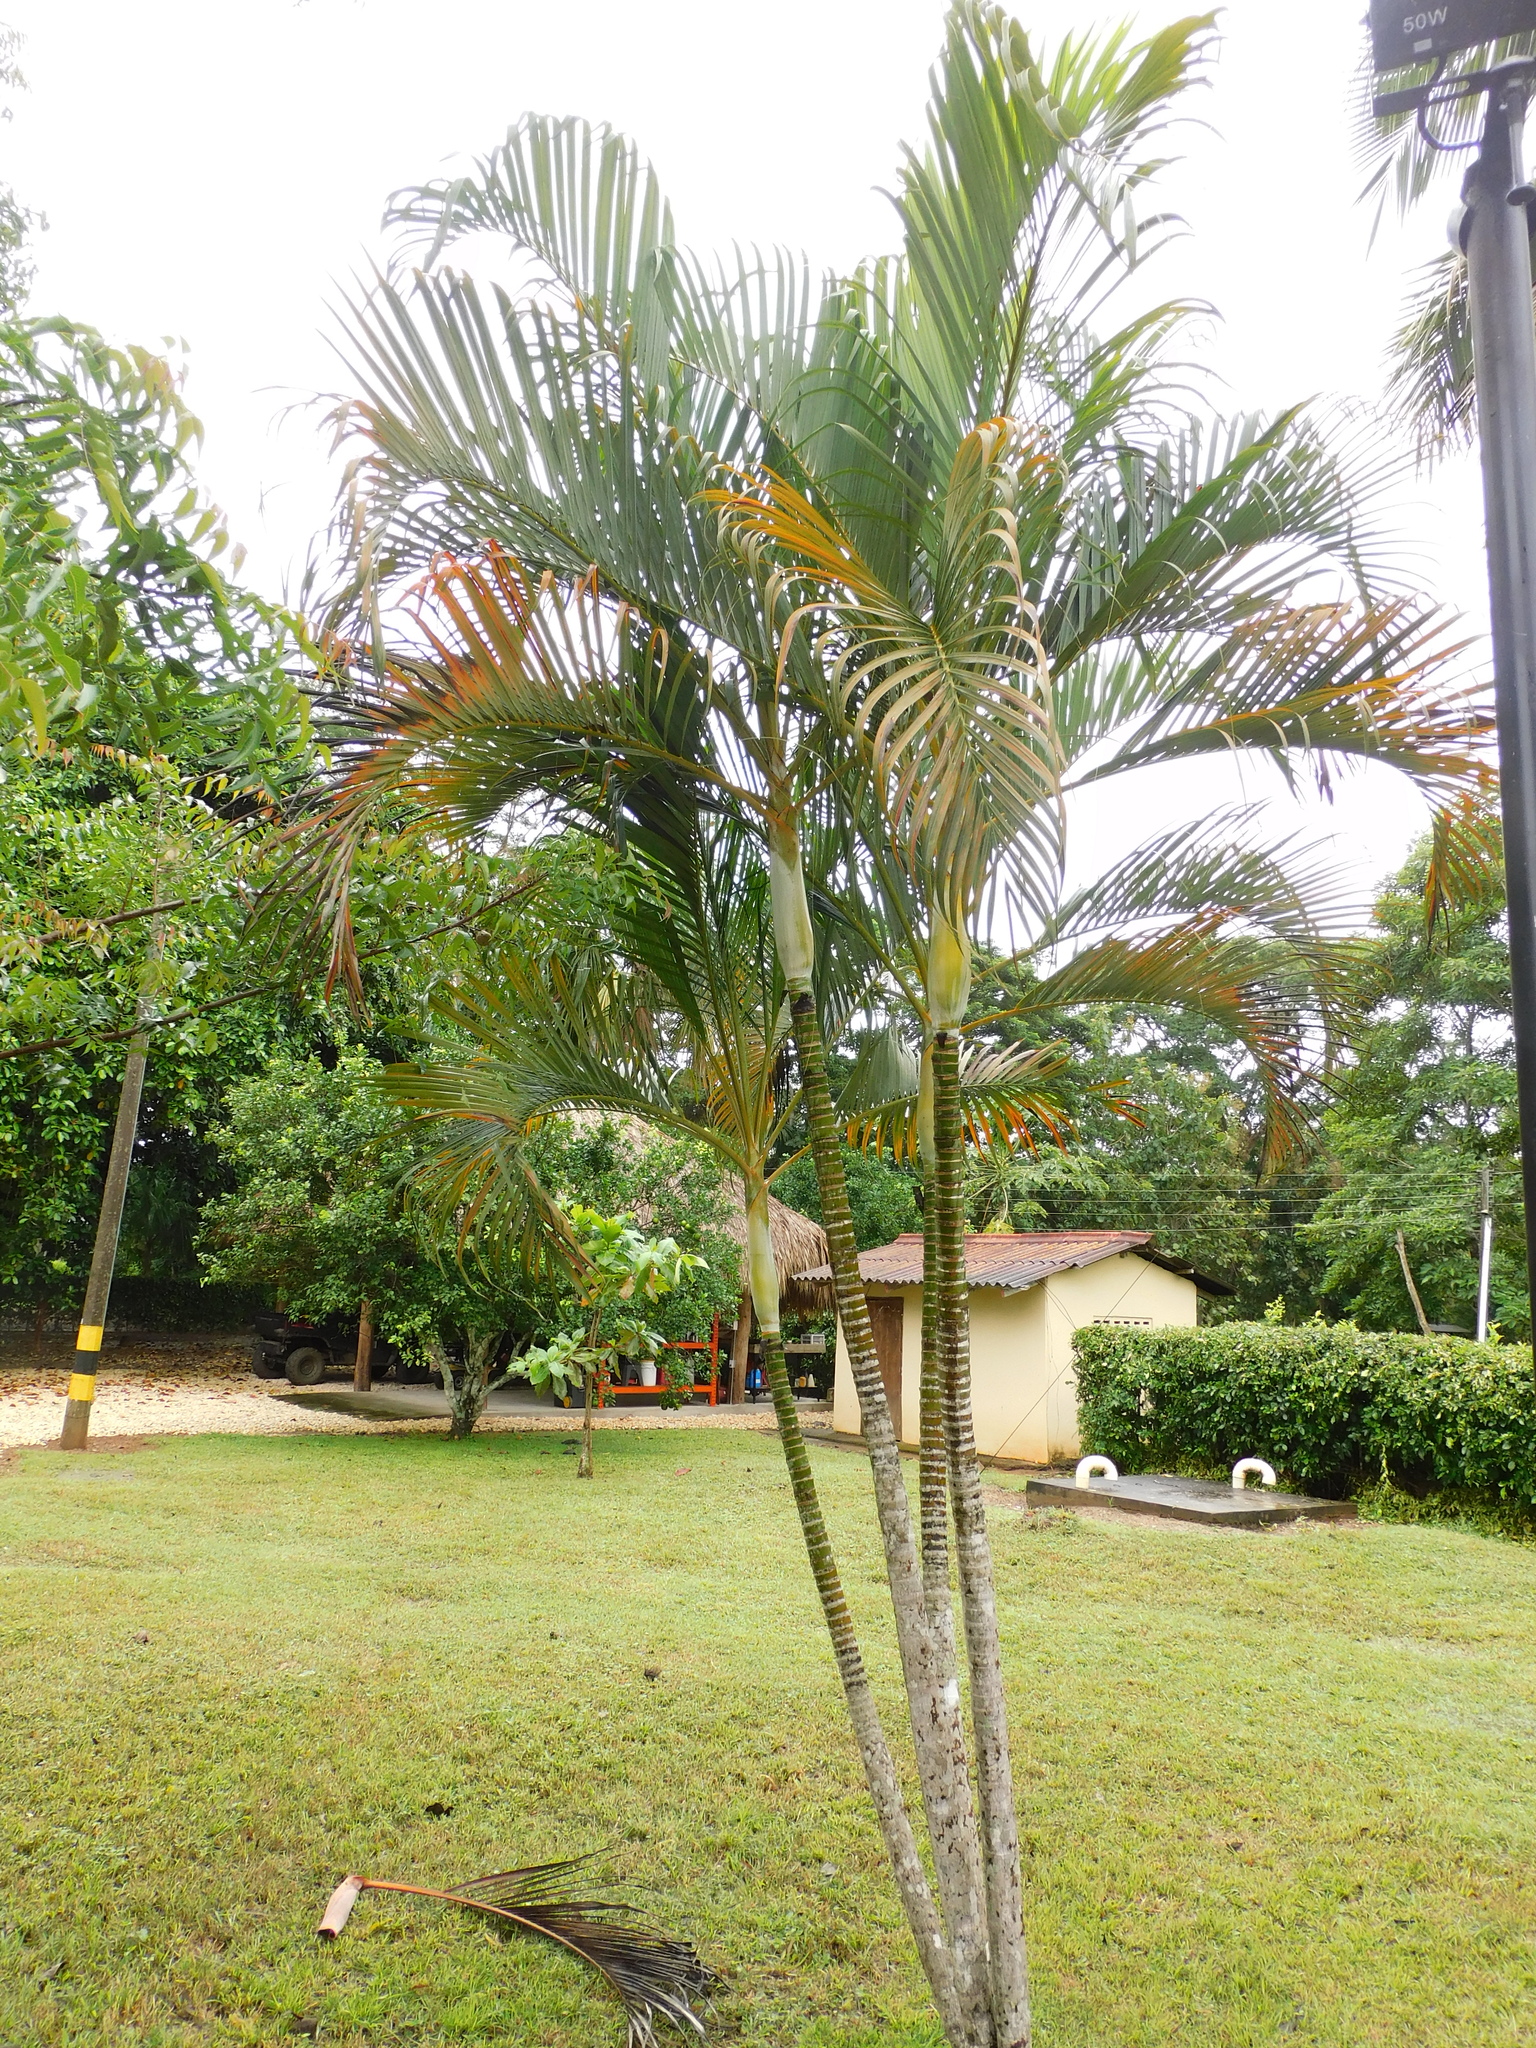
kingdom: Plantae
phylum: Tracheophyta
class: Liliopsida
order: Arecales
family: Arecaceae
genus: Dypsis
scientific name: Dypsis lutescens
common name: Yellow butterfly palm
